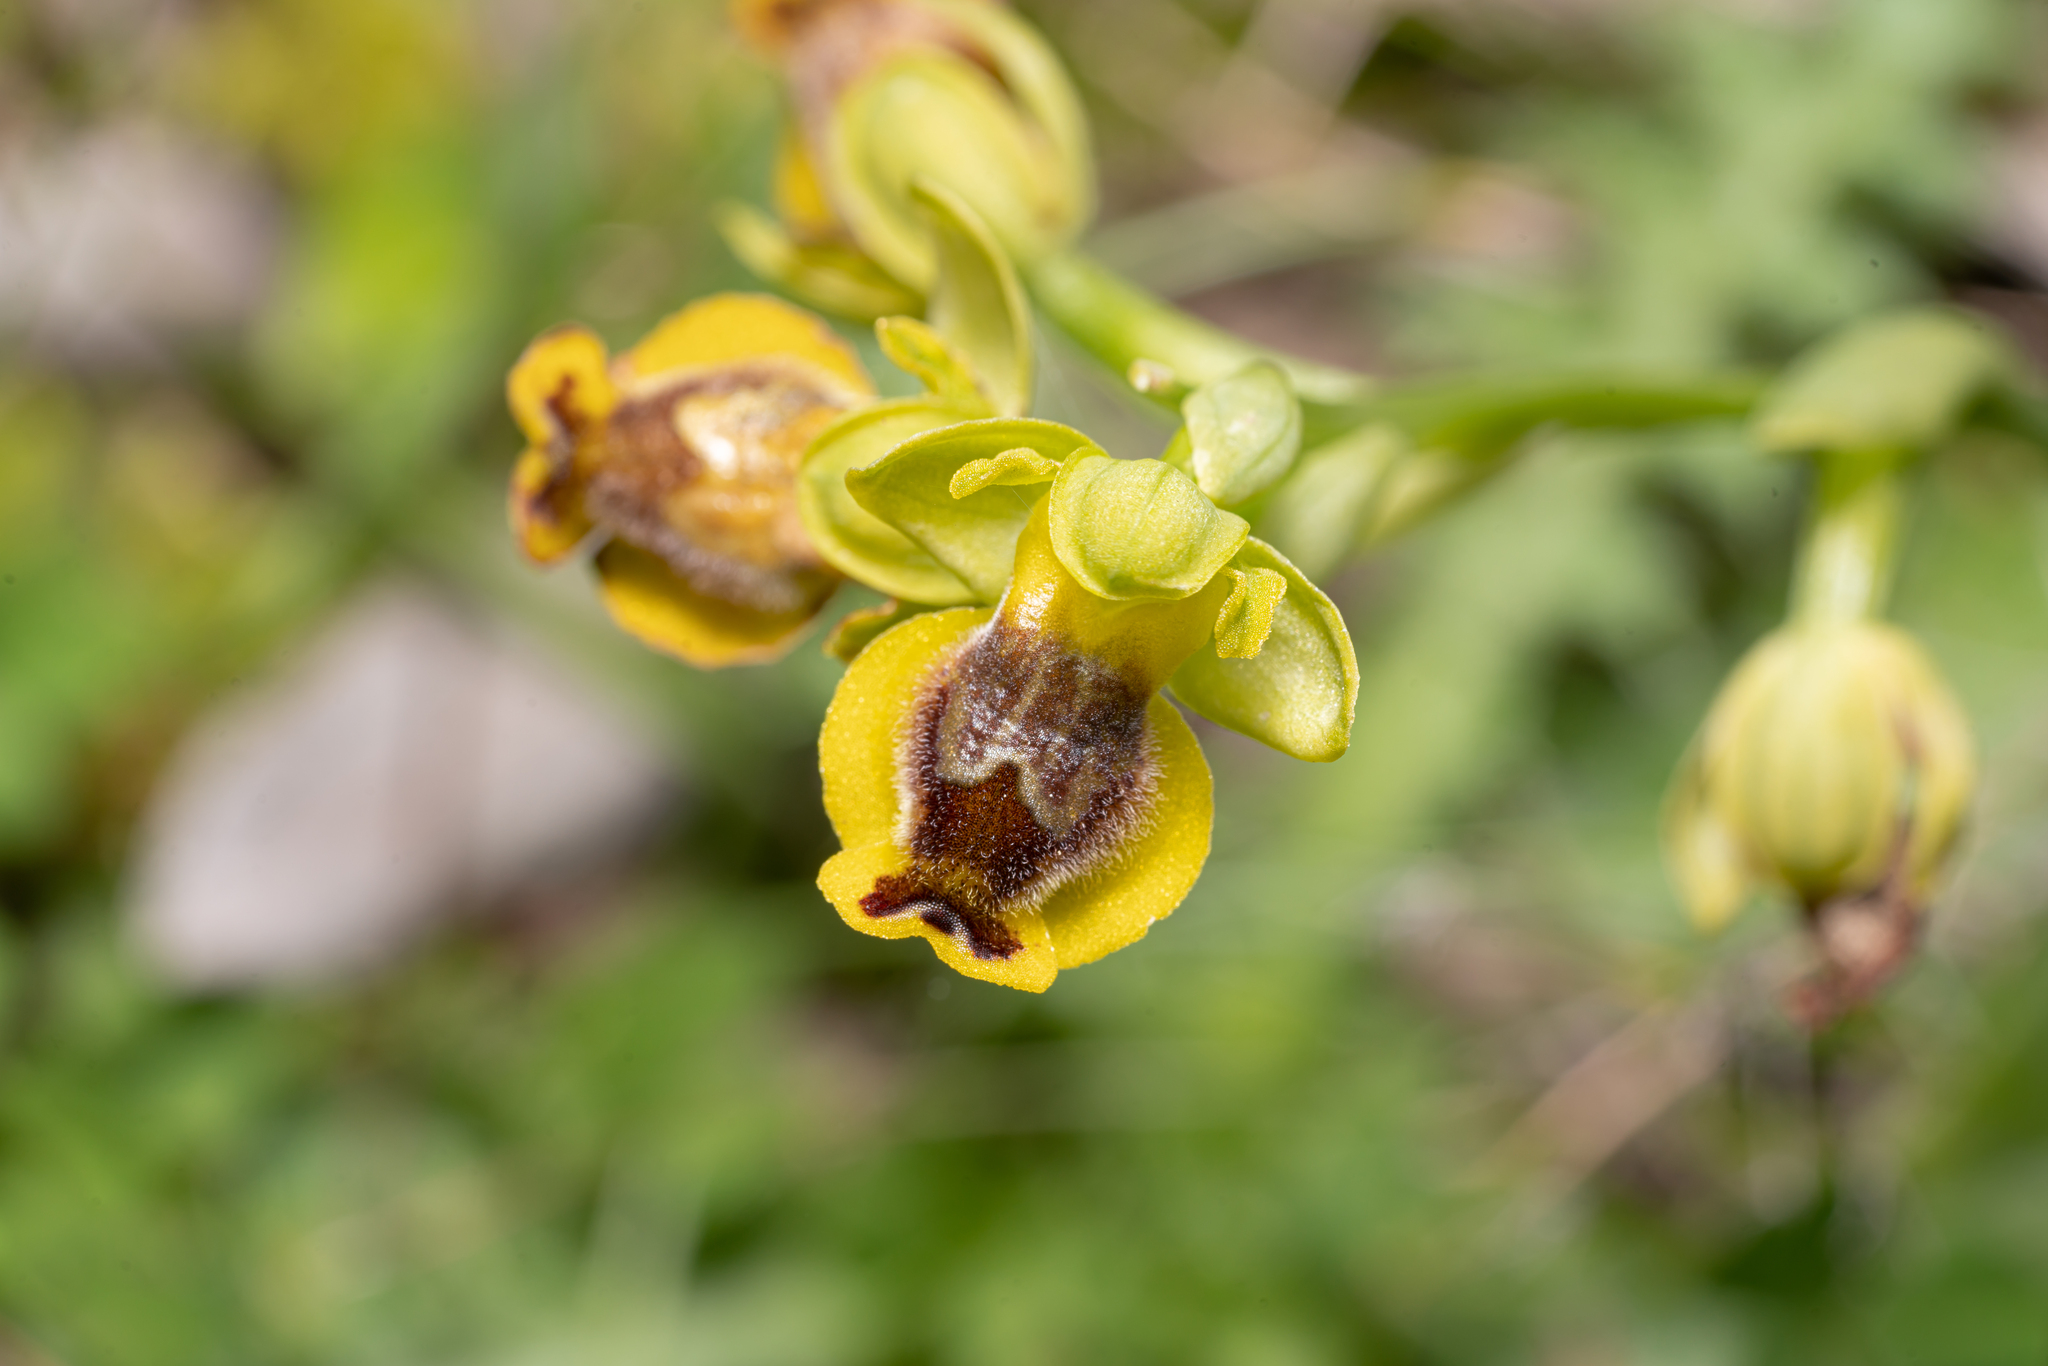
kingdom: Plantae
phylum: Tracheophyta
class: Liliopsida
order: Asparagales
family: Orchidaceae
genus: Ophrys
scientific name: Ophrys lutea
